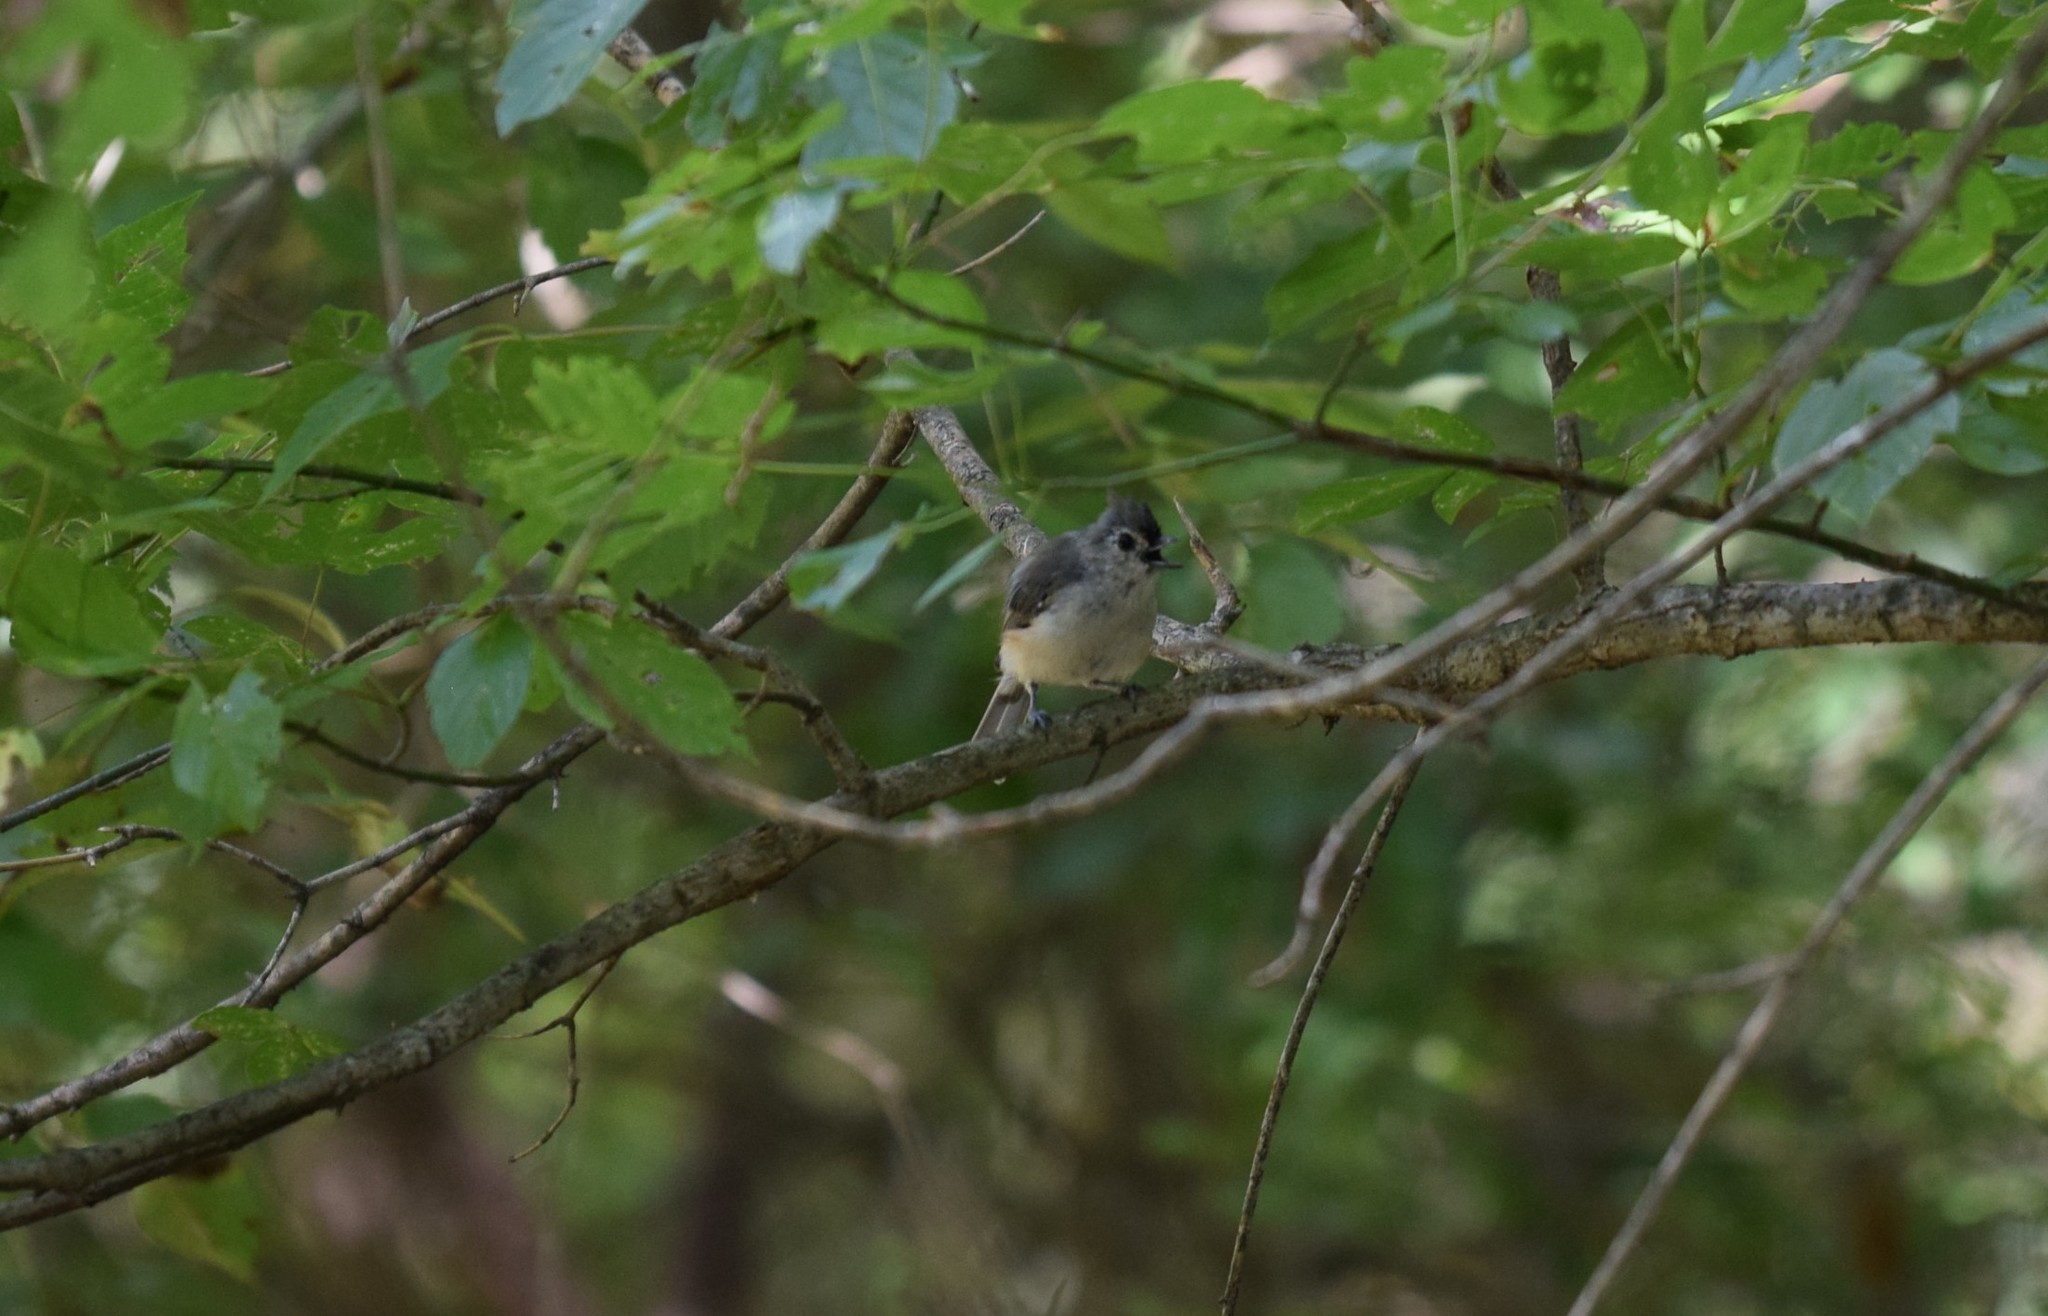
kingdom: Animalia
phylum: Chordata
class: Aves
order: Passeriformes
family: Paridae
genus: Baeolophus
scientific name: Baeolophus bicolor
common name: Tufted titmouse
